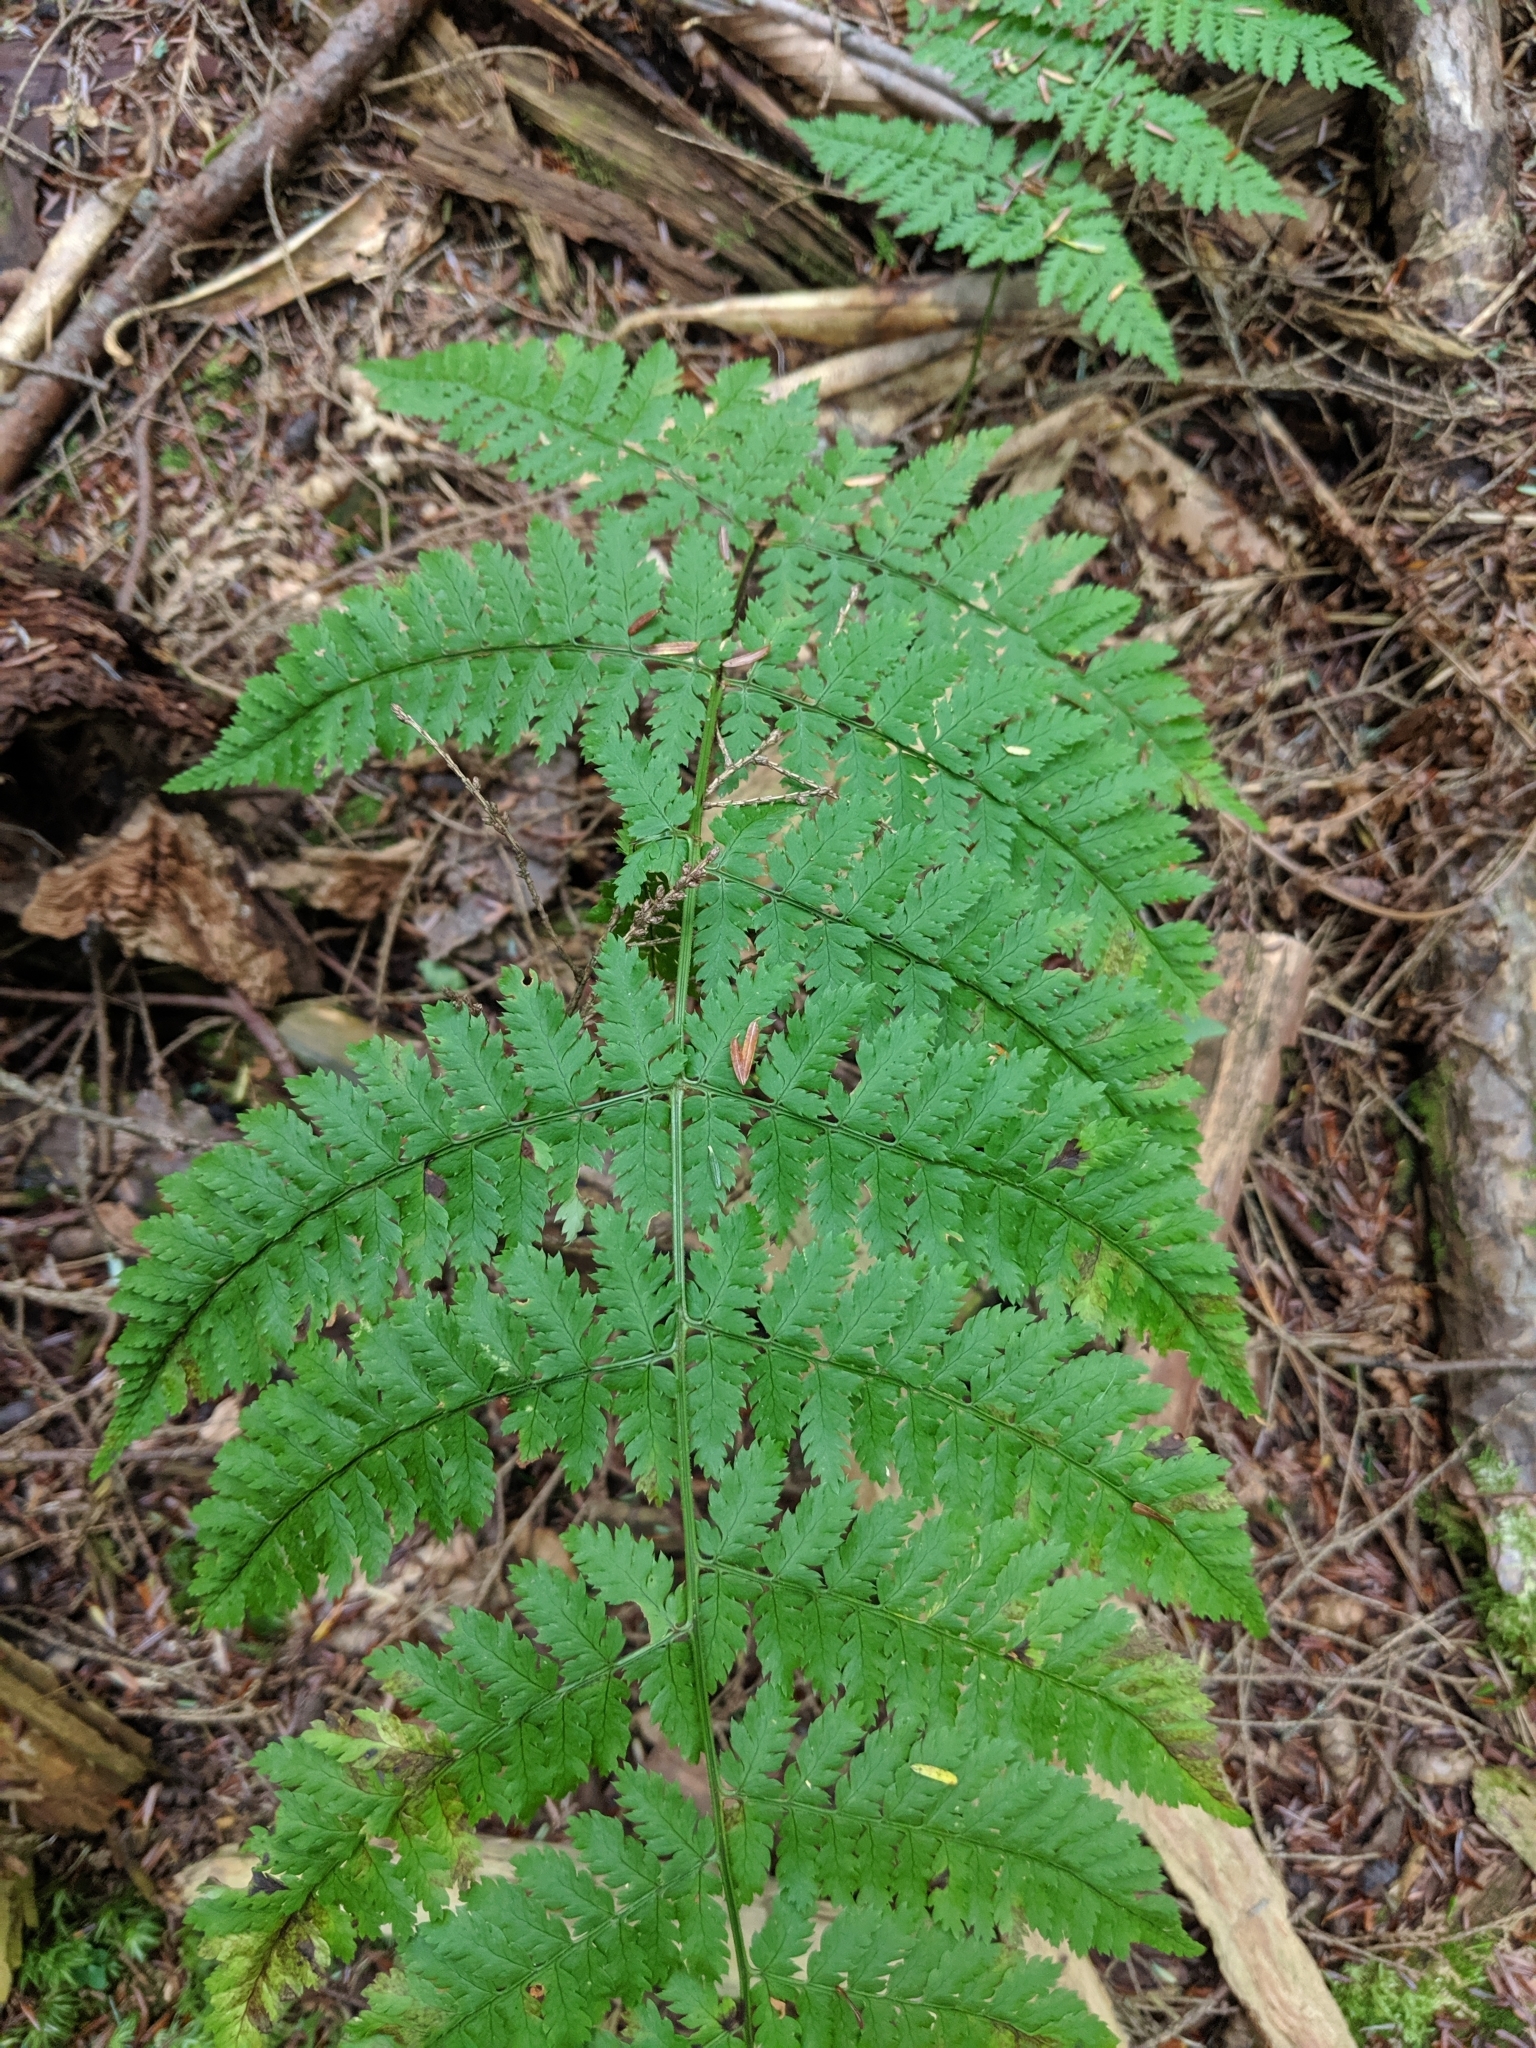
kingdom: Plantae
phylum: Tracheophyta
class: Polypodiopsida
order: Polypodiales
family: Dryopteridaceae
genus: Dryopteris
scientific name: Dryopteris intermedia
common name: Evergreen wood fern
